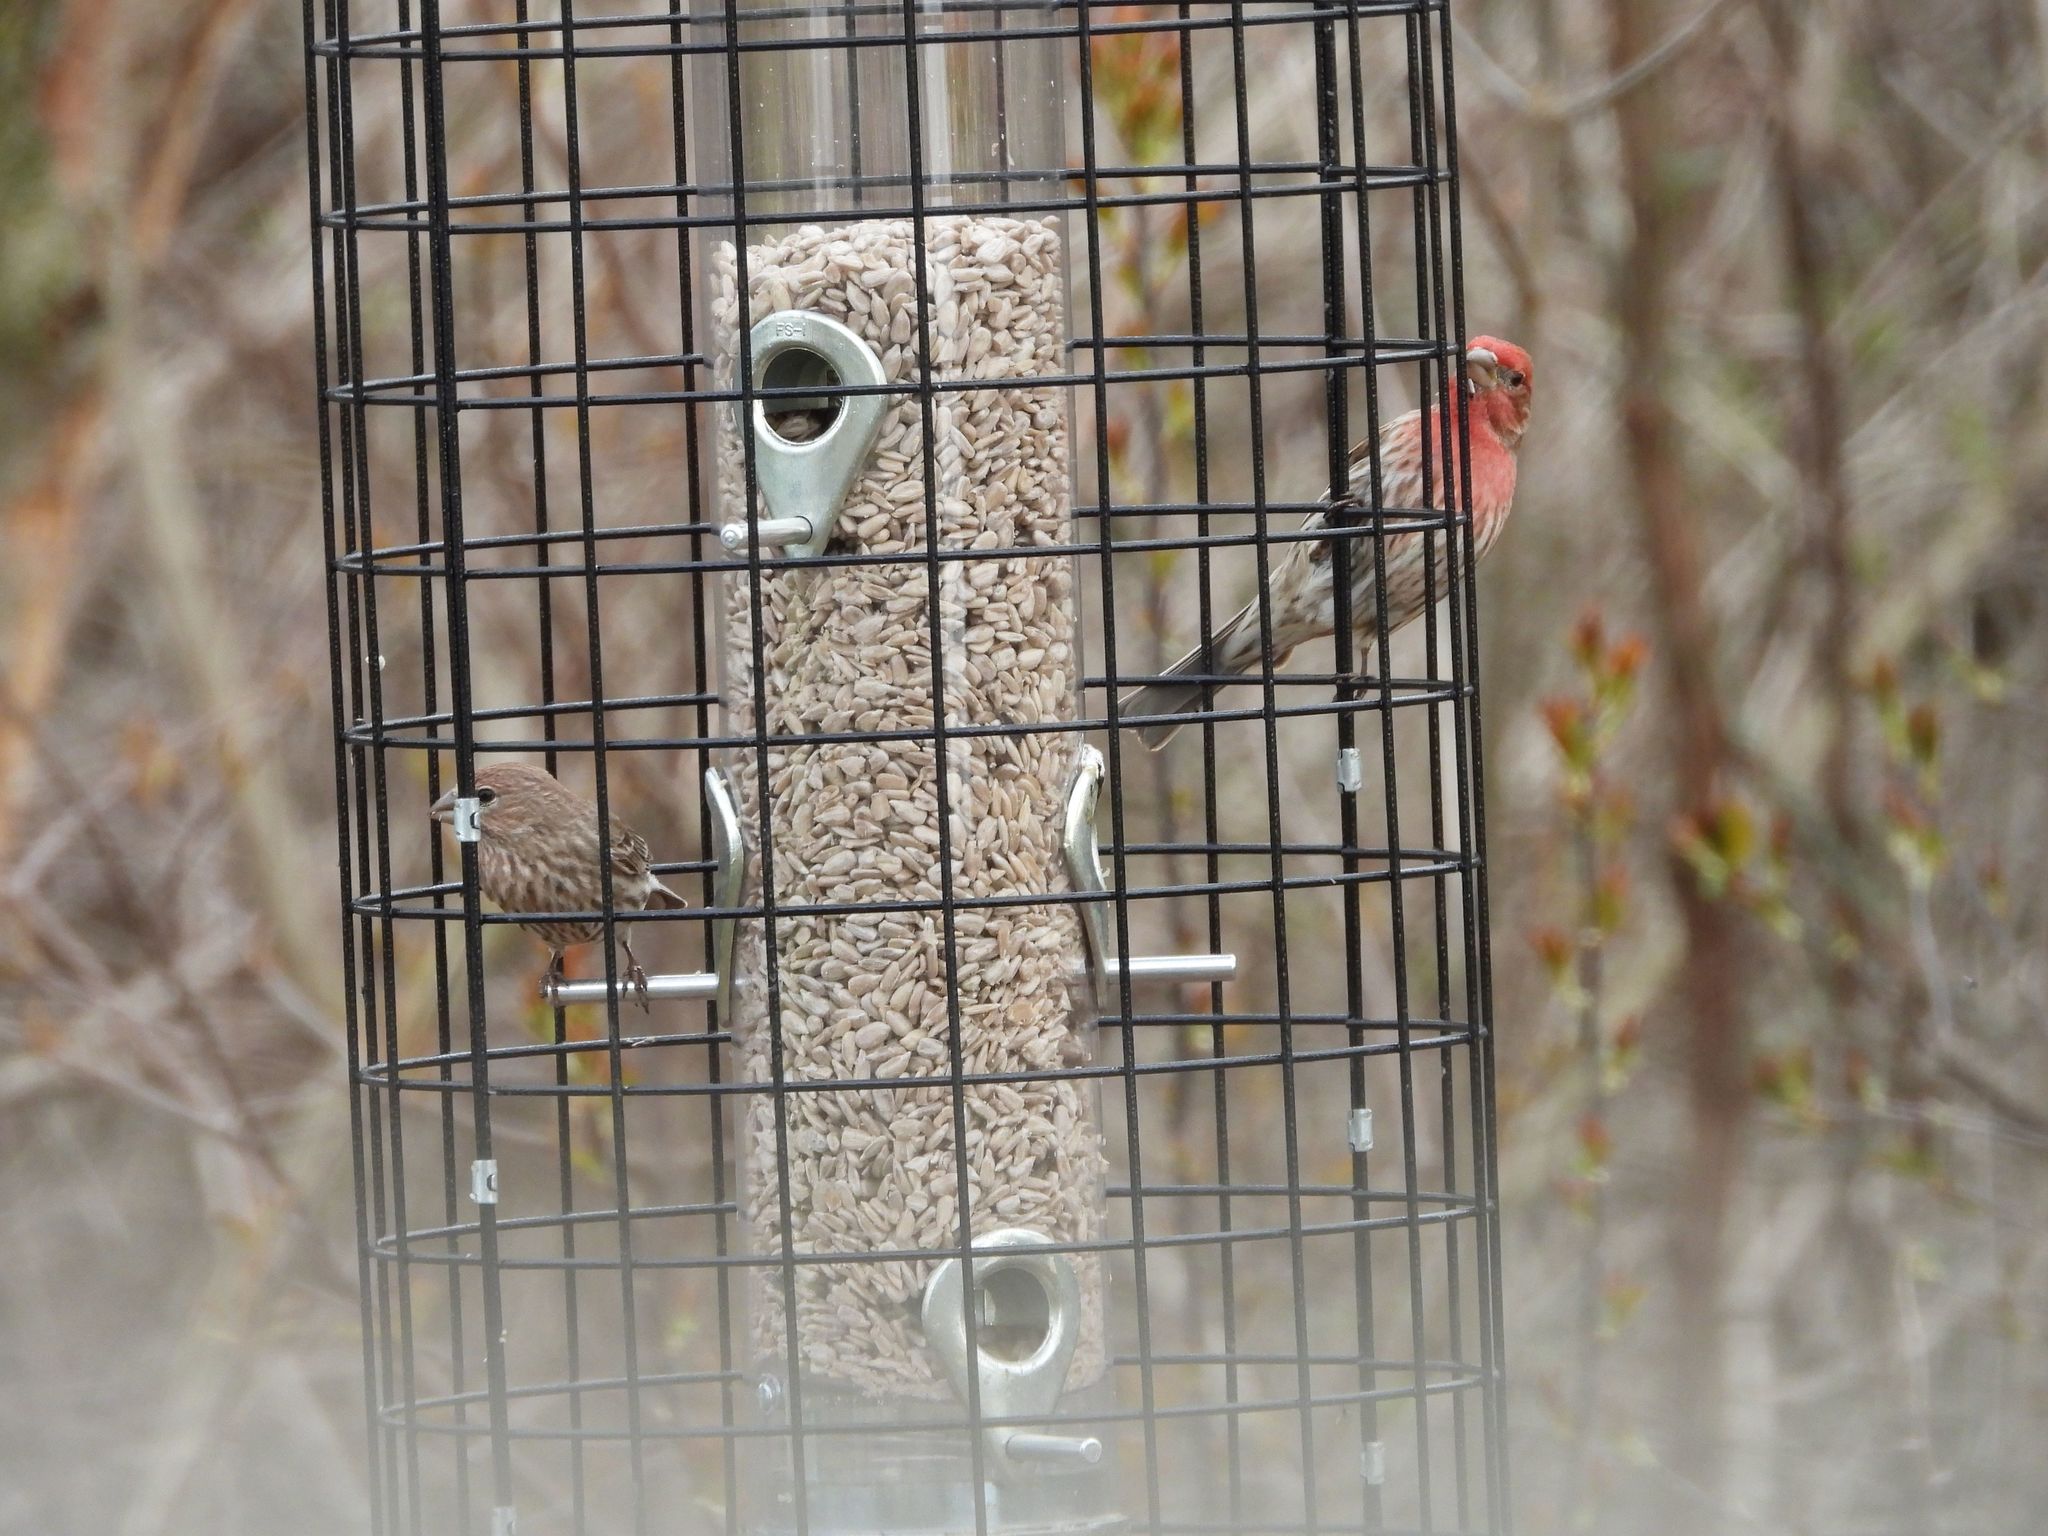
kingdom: Animalia
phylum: Chordata
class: Aves
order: Passeriformes
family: Fringillidae
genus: Haemorhous
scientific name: Haemorhous mexicanus
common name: House finch
